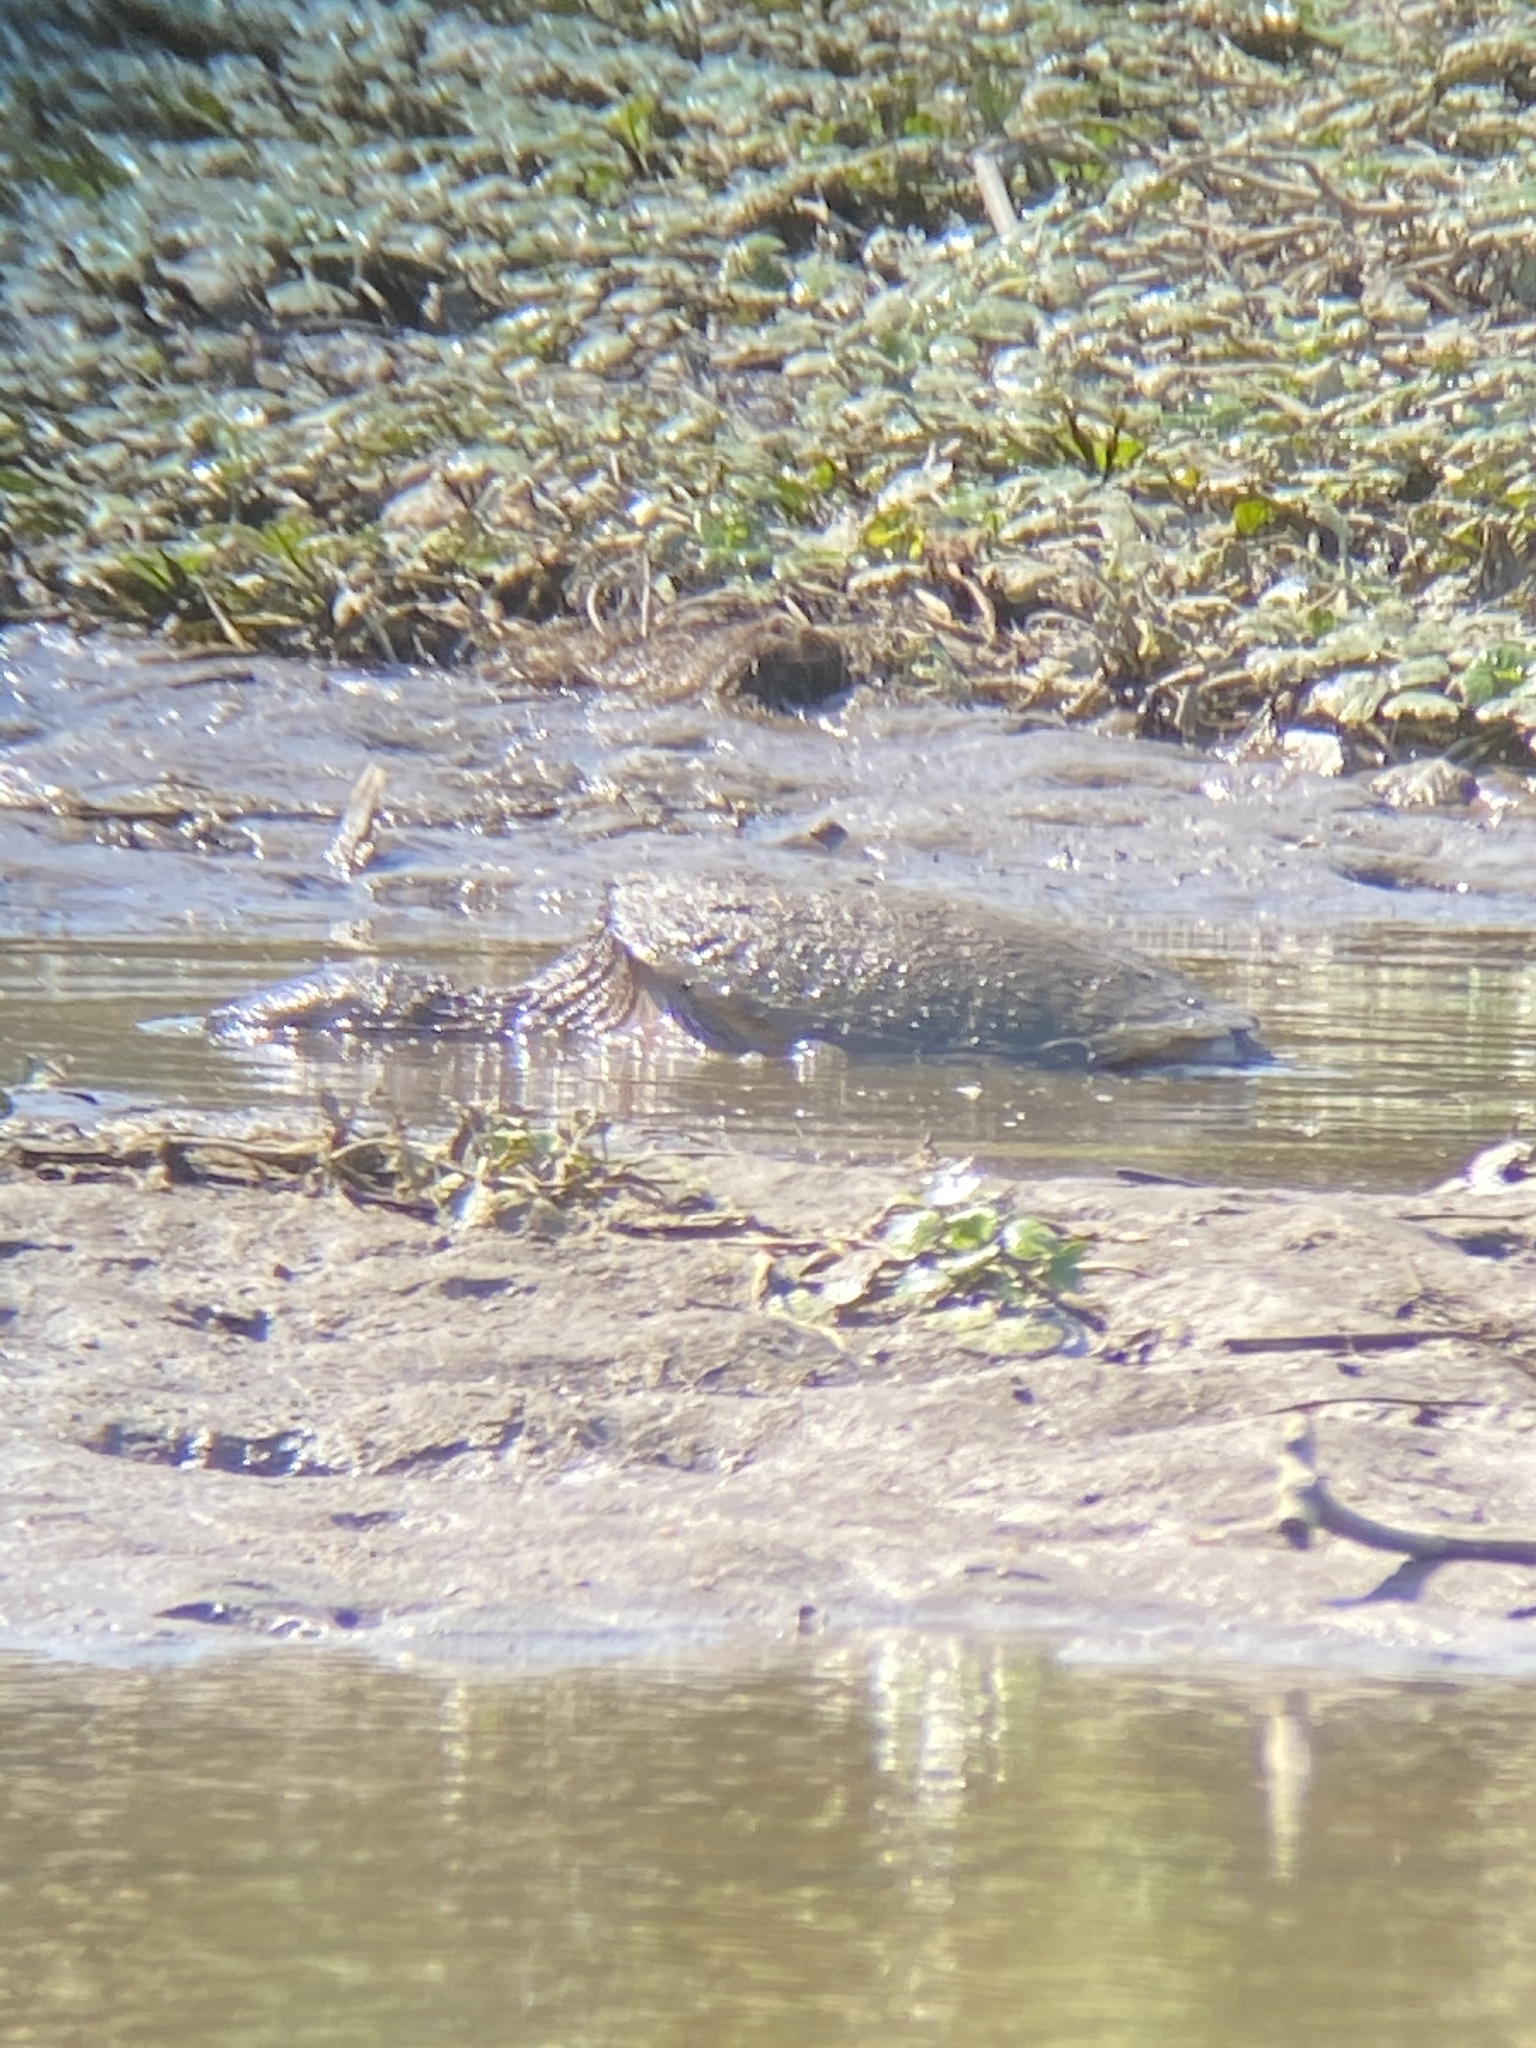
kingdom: Animalia
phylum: Chordata
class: Testudines
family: Chelydridae
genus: Chelydra
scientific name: Chelydra serpentina
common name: Common snapping turtle
